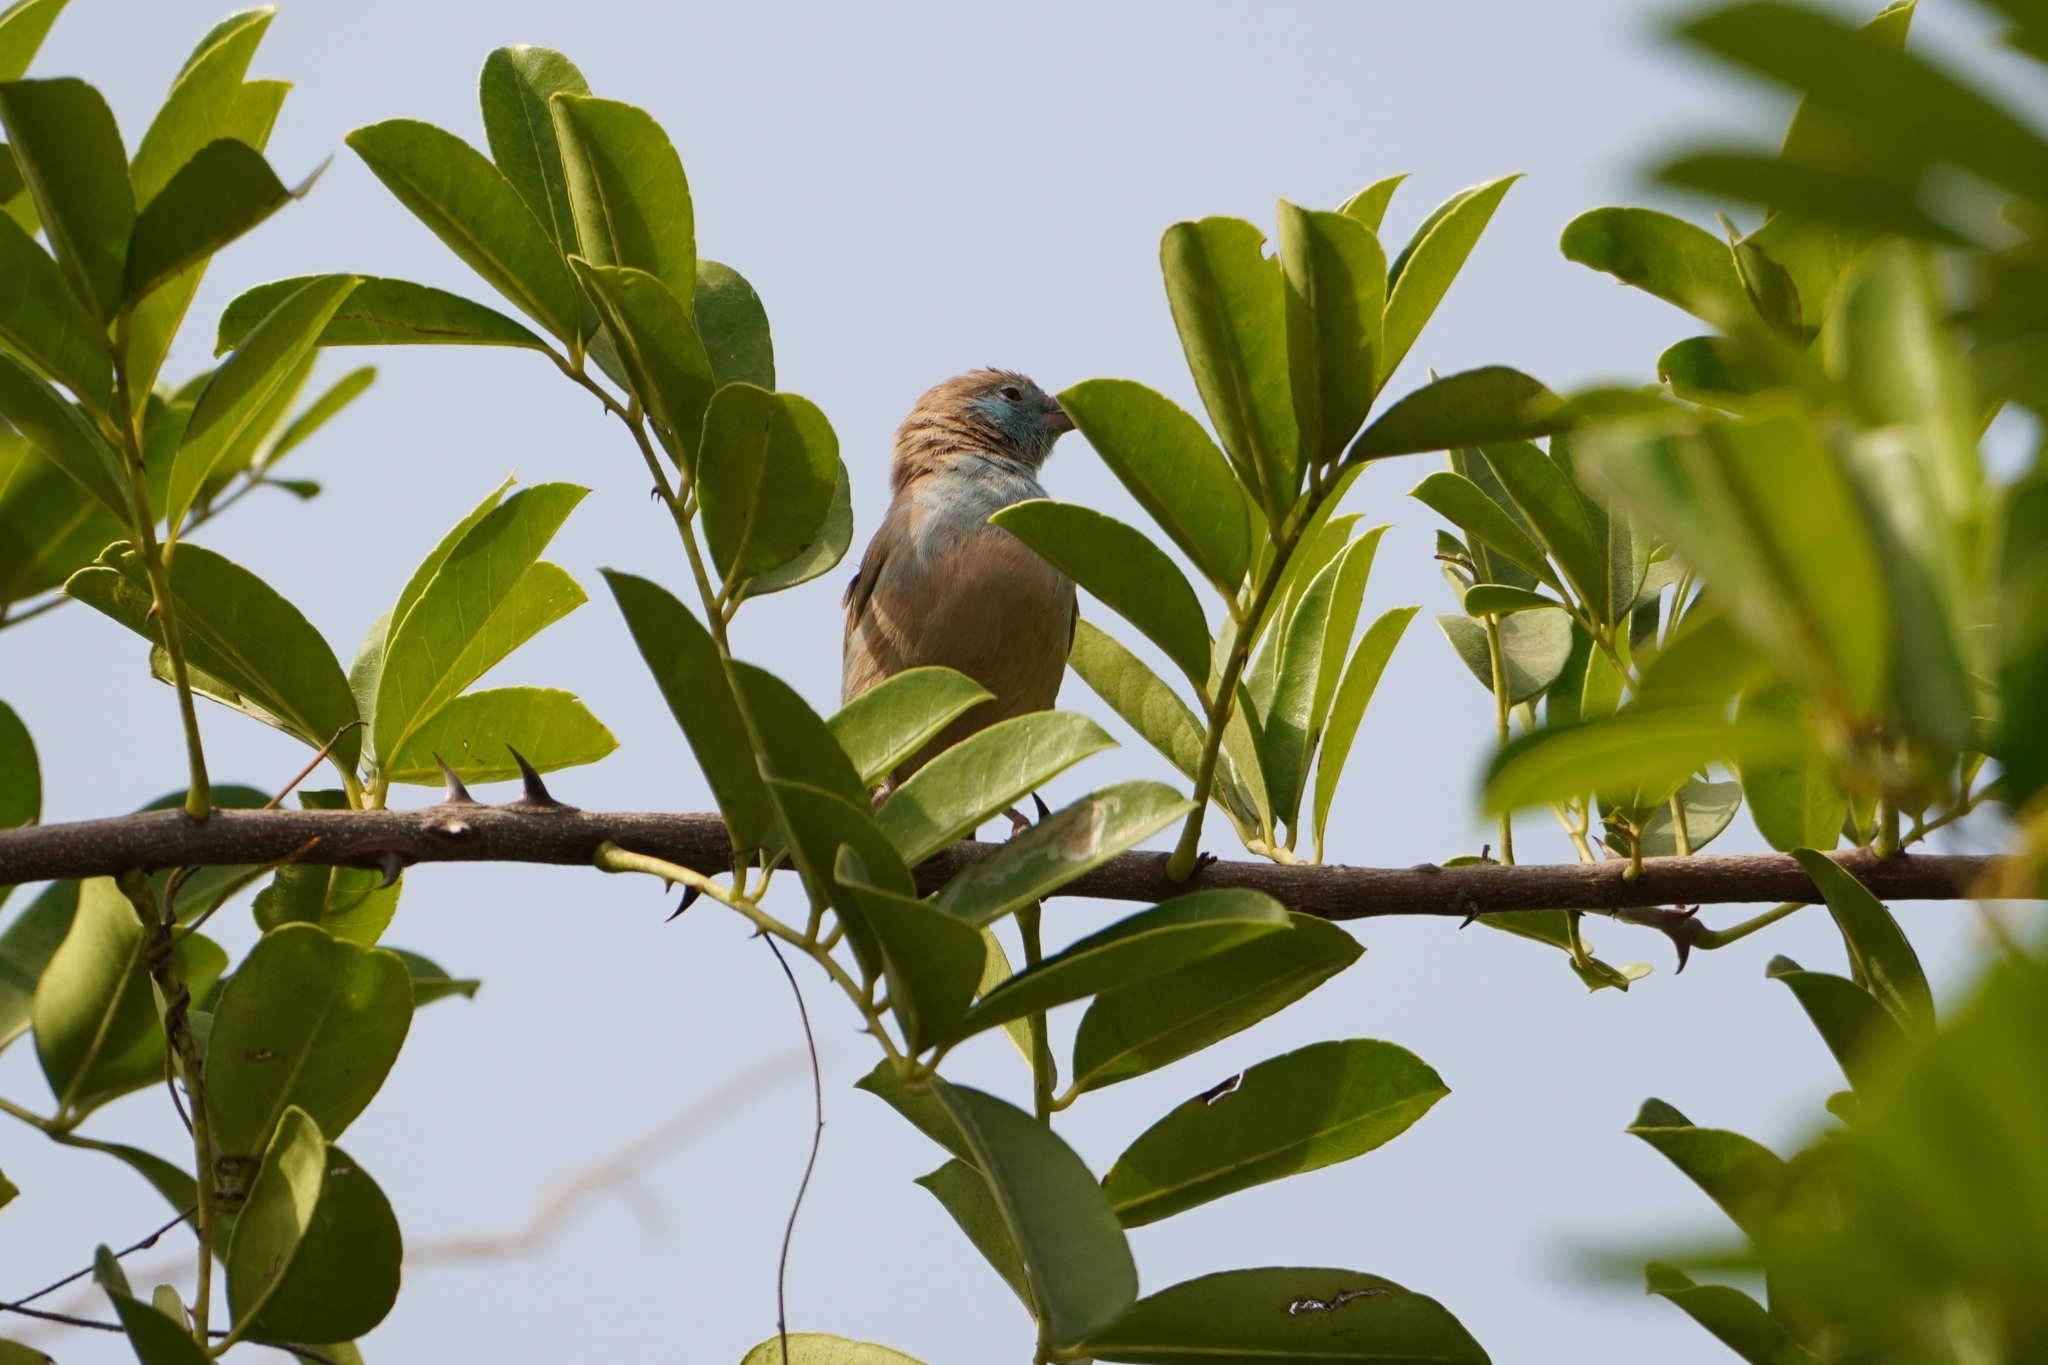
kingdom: Animalia
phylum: Chordata
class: Aves
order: Passeriformes
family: Estrildidae
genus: Uraeginthus
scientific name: Uraeginthus bengalus
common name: Red-cheeked cordon-bleu
